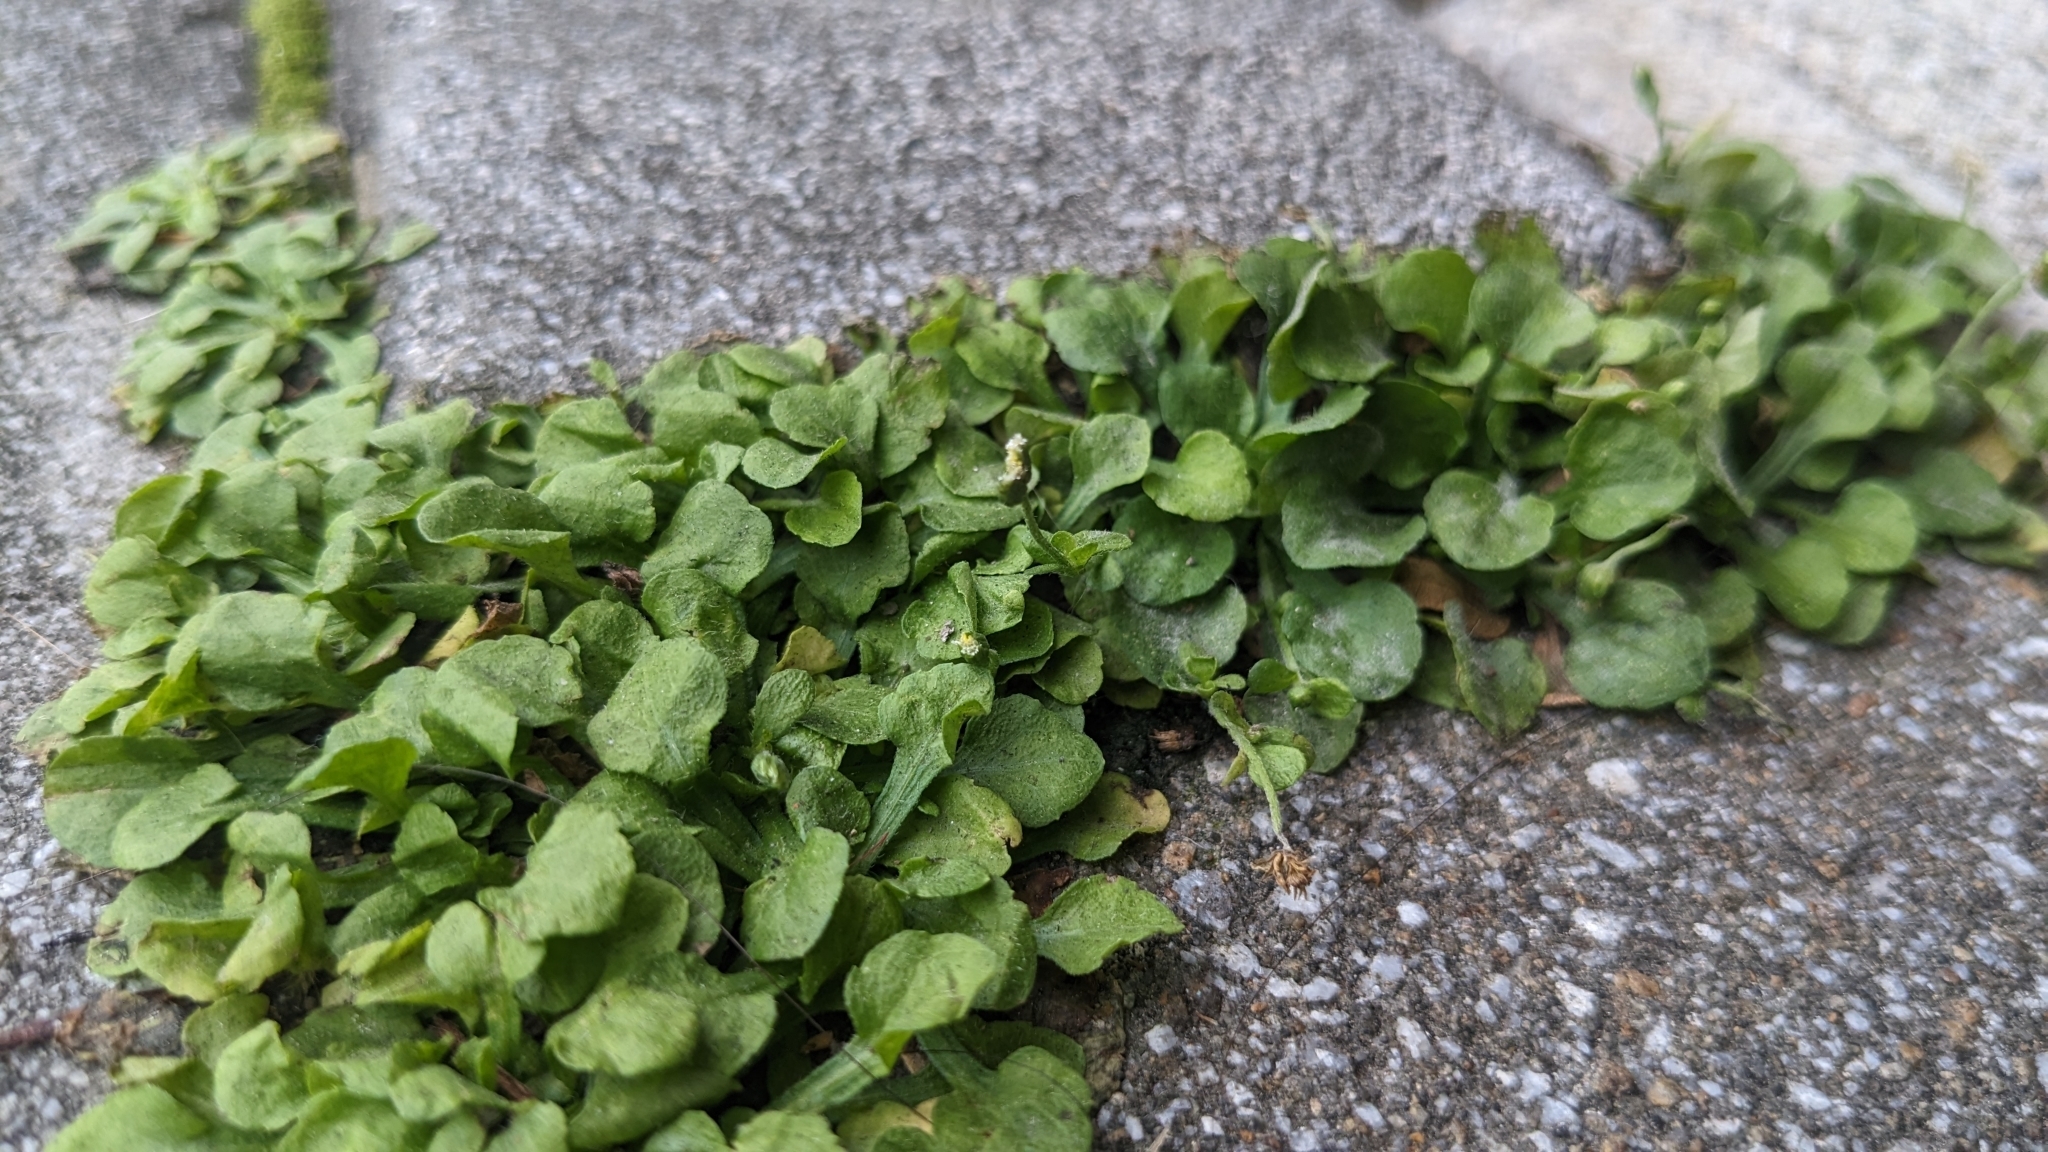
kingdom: Plantae
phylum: Tracheophyta
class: Magnoliopsida
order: Asterales
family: Asteraceae
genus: Erigeron
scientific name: Erigeron bellioides
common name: Bellorita
